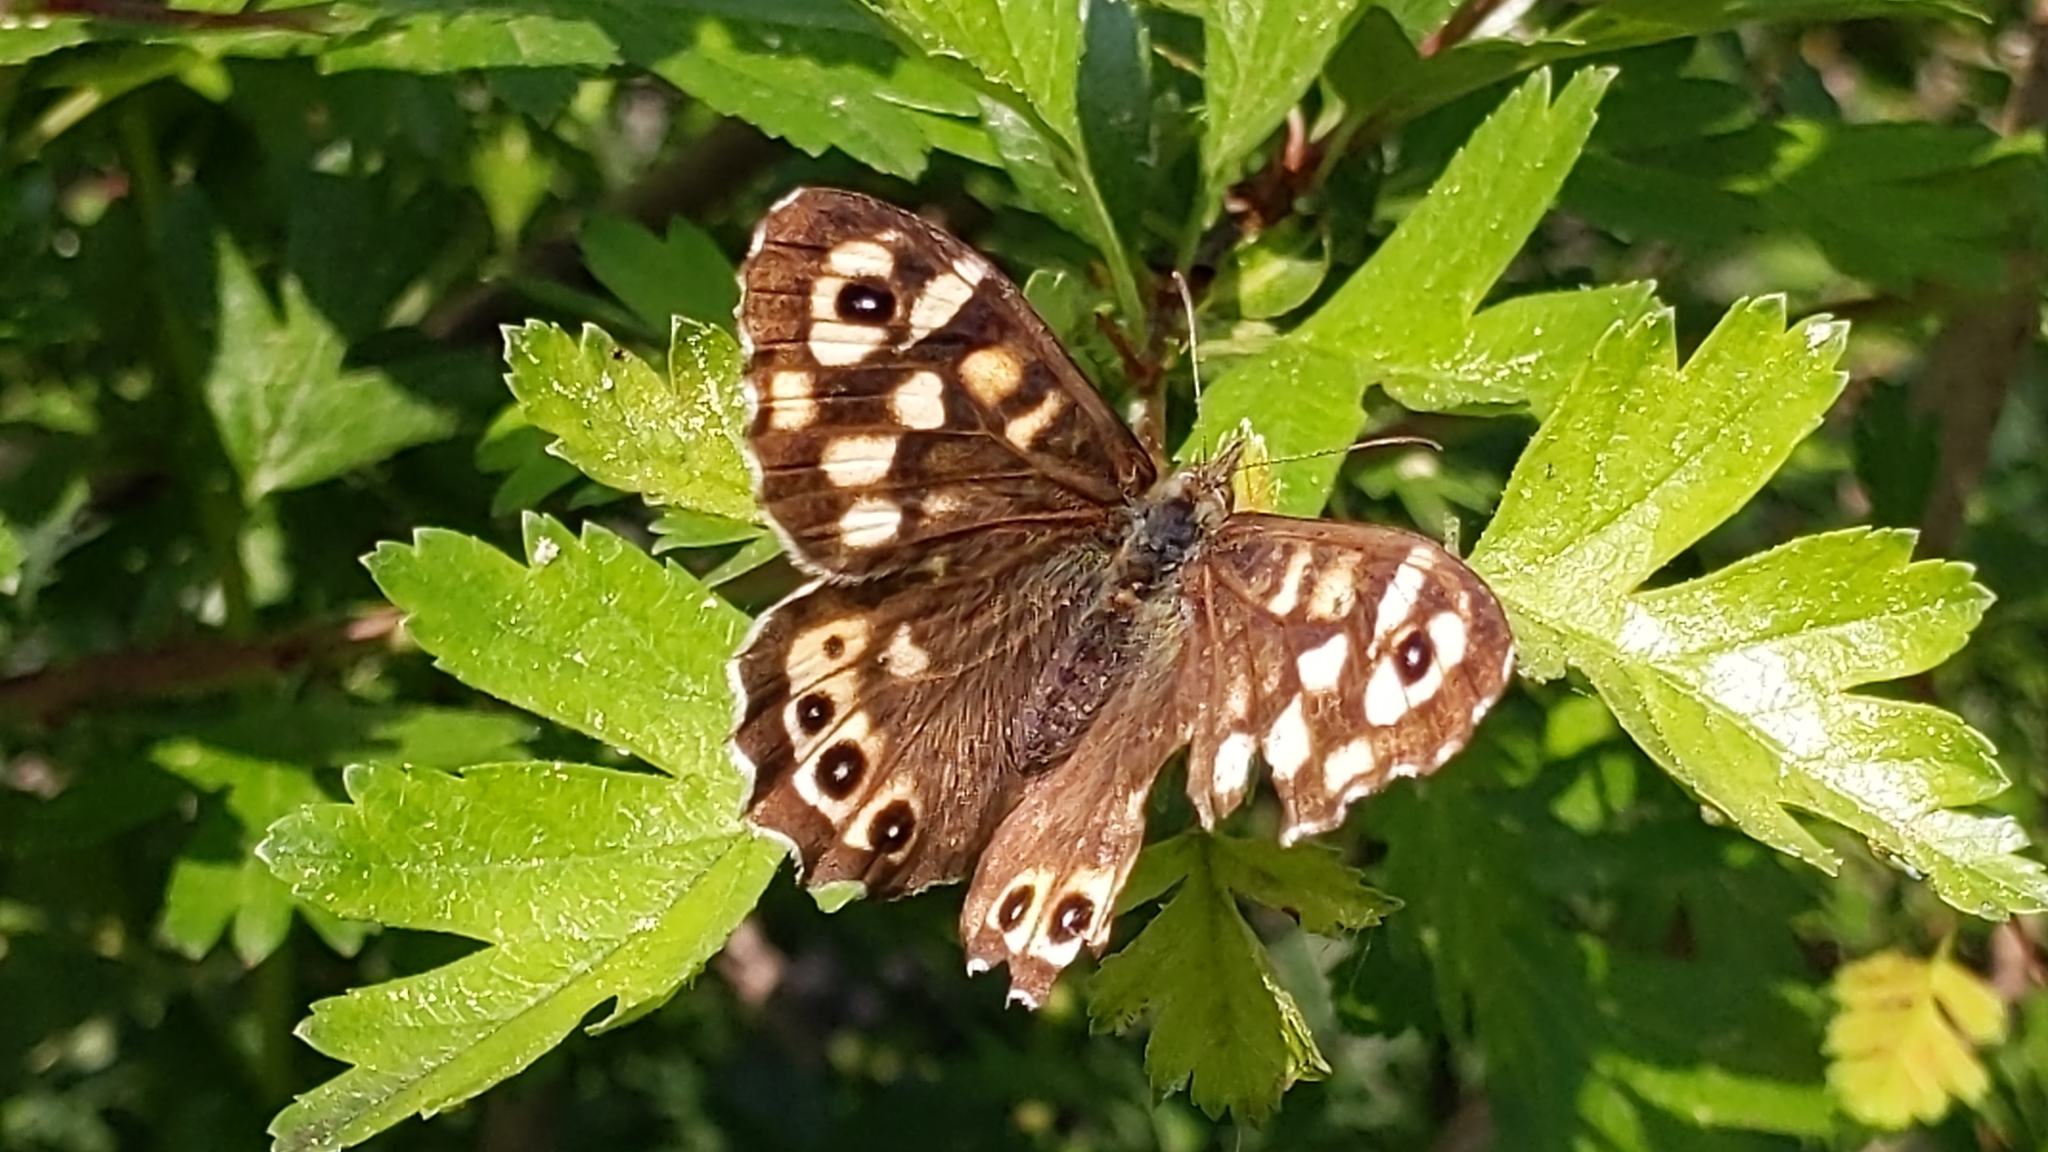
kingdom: Animalia
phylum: Arthropoda
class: Insecta
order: Lepidoptera
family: Nymphalidae
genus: Pararge
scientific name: Pararge aegeria
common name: Speckled wood
